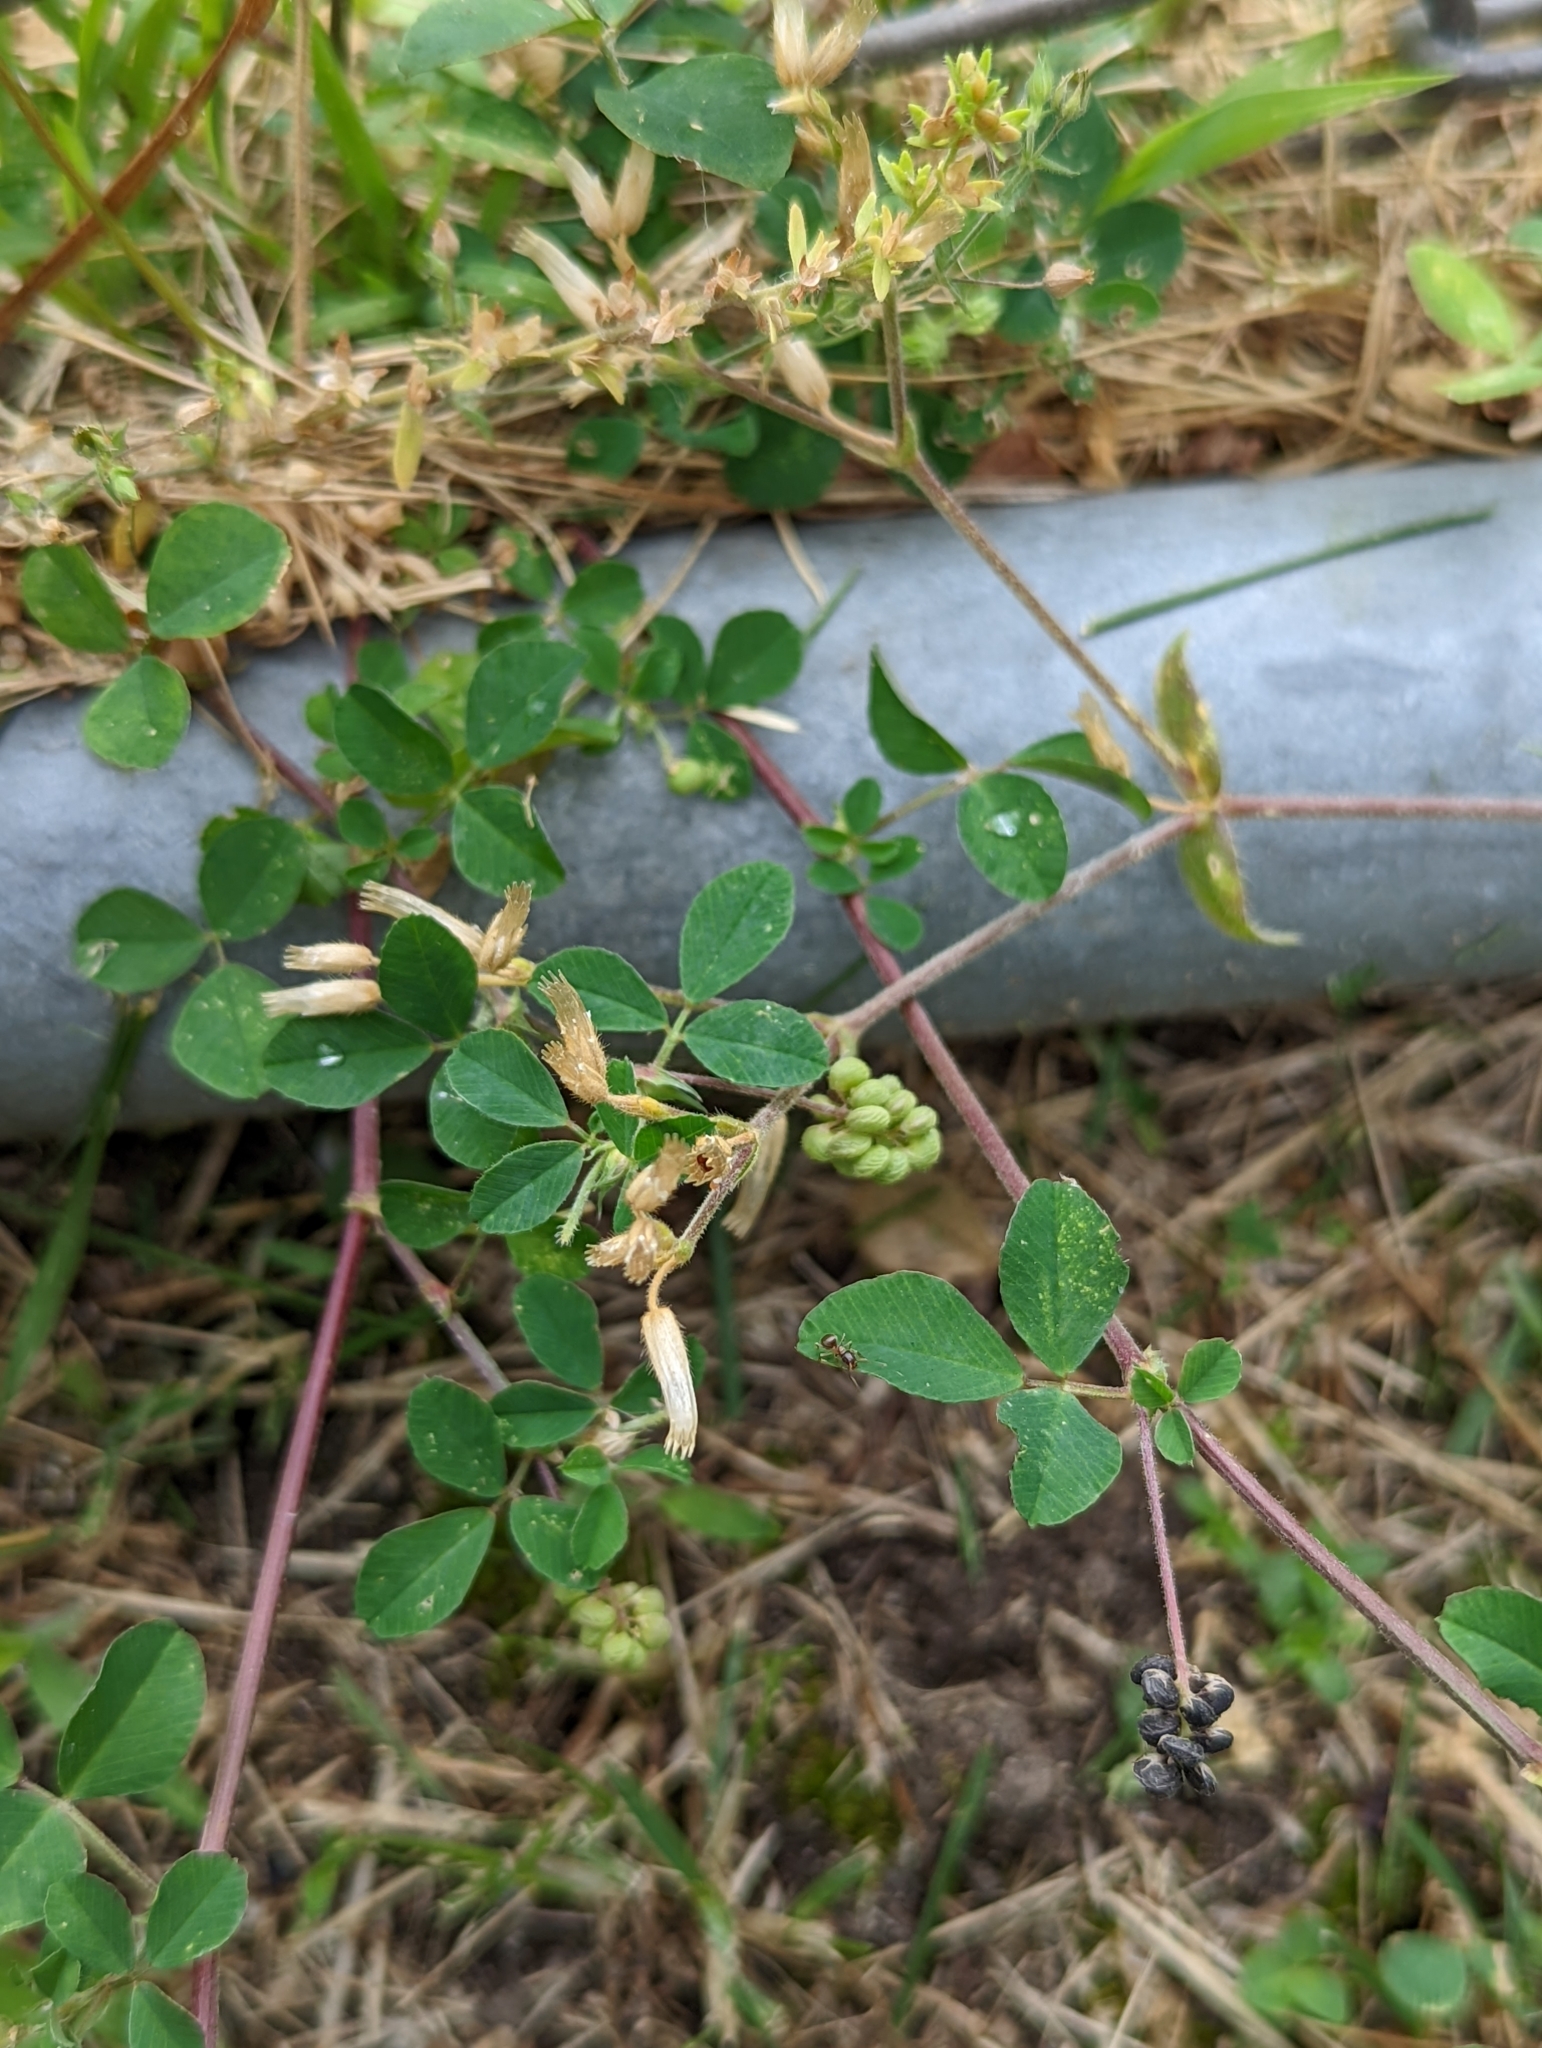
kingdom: Plantae
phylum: Tracheophyta
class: Magnoliopsida
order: Fabales
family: Fabaceae
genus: Medicago
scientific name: Medicago lupulina
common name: Black medick
